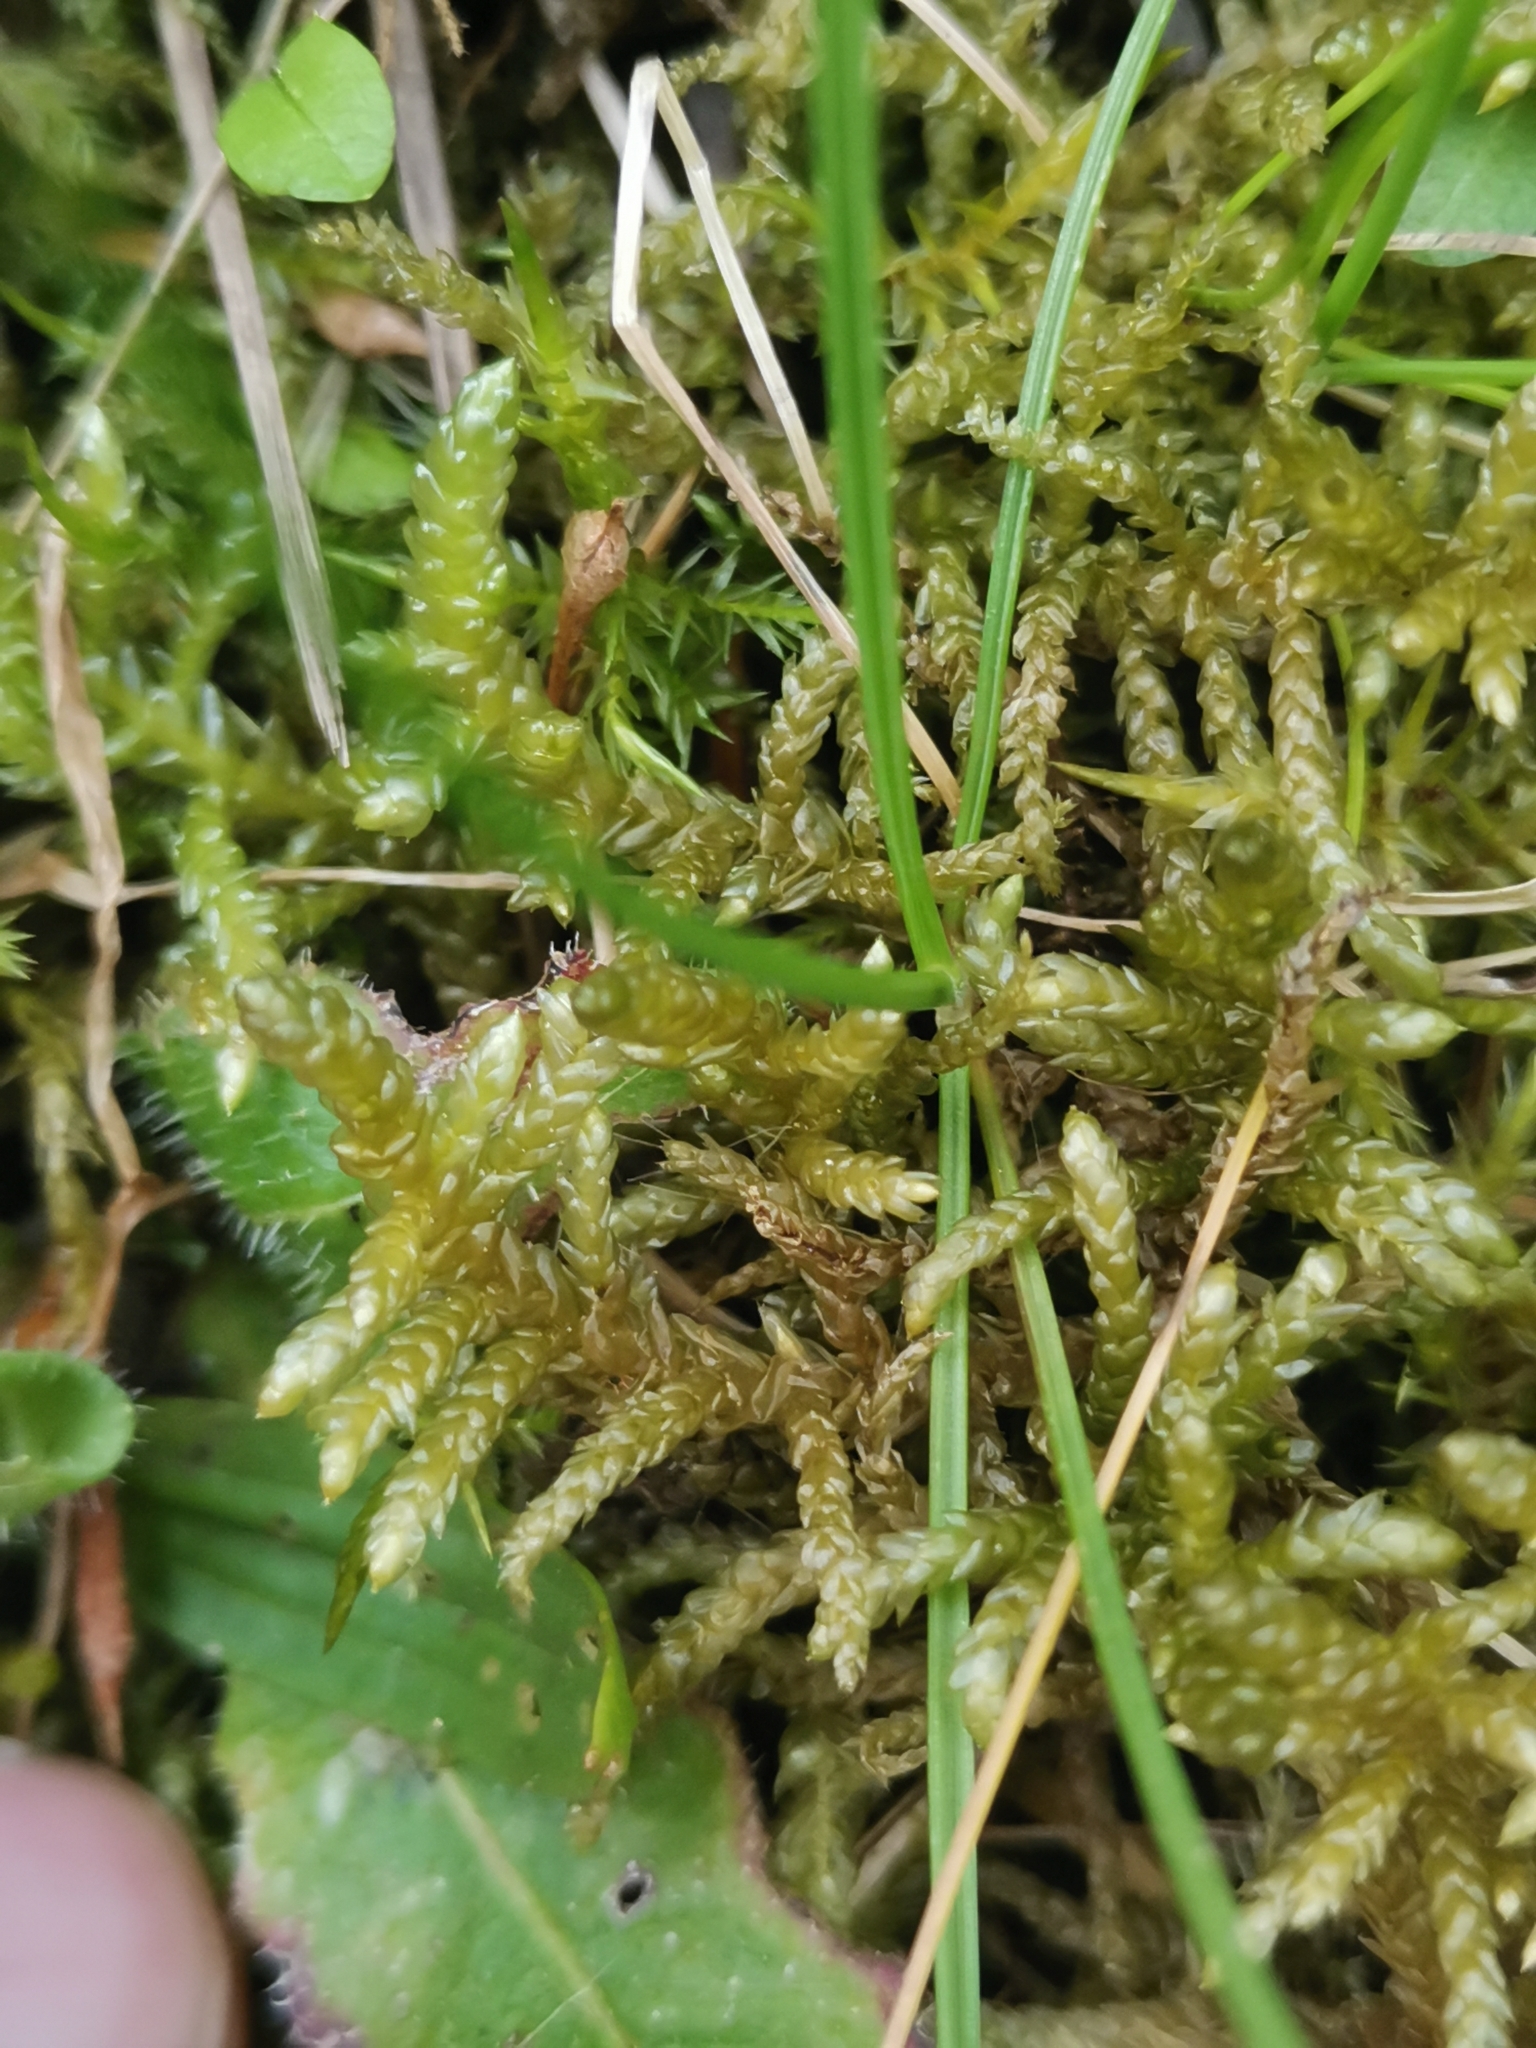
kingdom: Plantae
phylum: Bryophyta
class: Bryopsida
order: Hypnales
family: Brachytheciaceae
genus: Pseudoscleropodium
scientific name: Pseudoscleropodium purum
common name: Neat feather-moss
